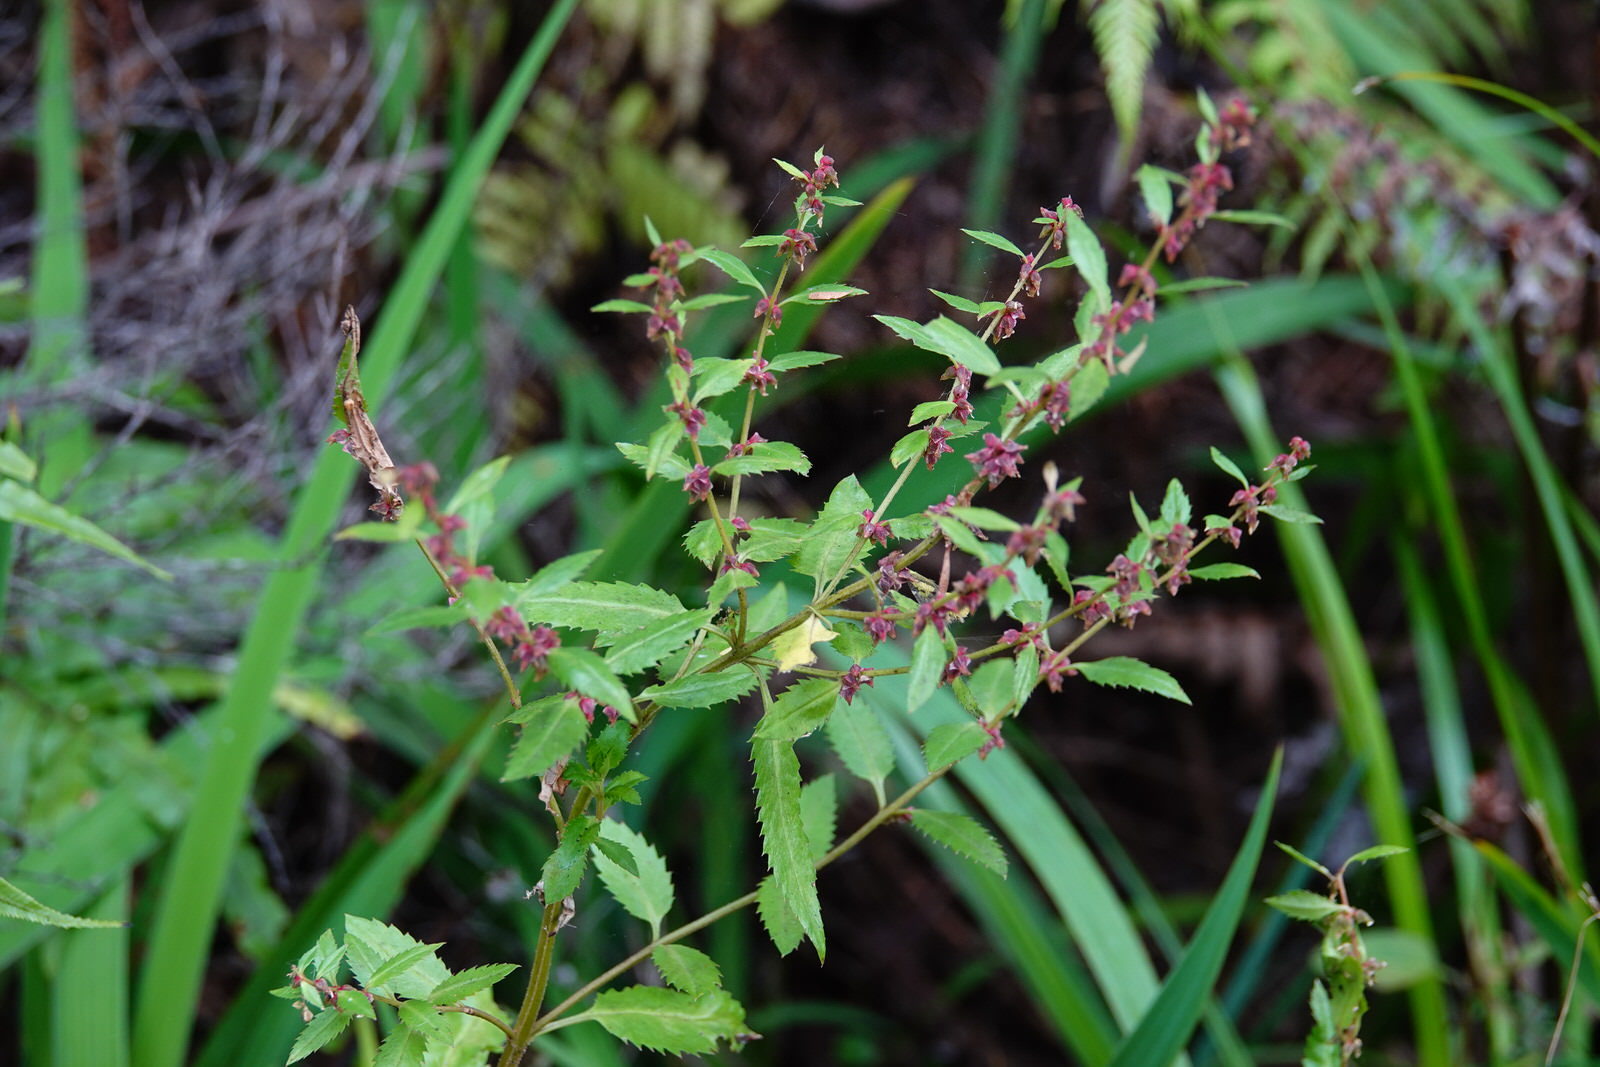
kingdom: Plantae
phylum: Tracheophyta
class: Magnoliopsida
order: Saxifragales
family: Haloragaceae
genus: Haloragis
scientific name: Haloragis erecta
